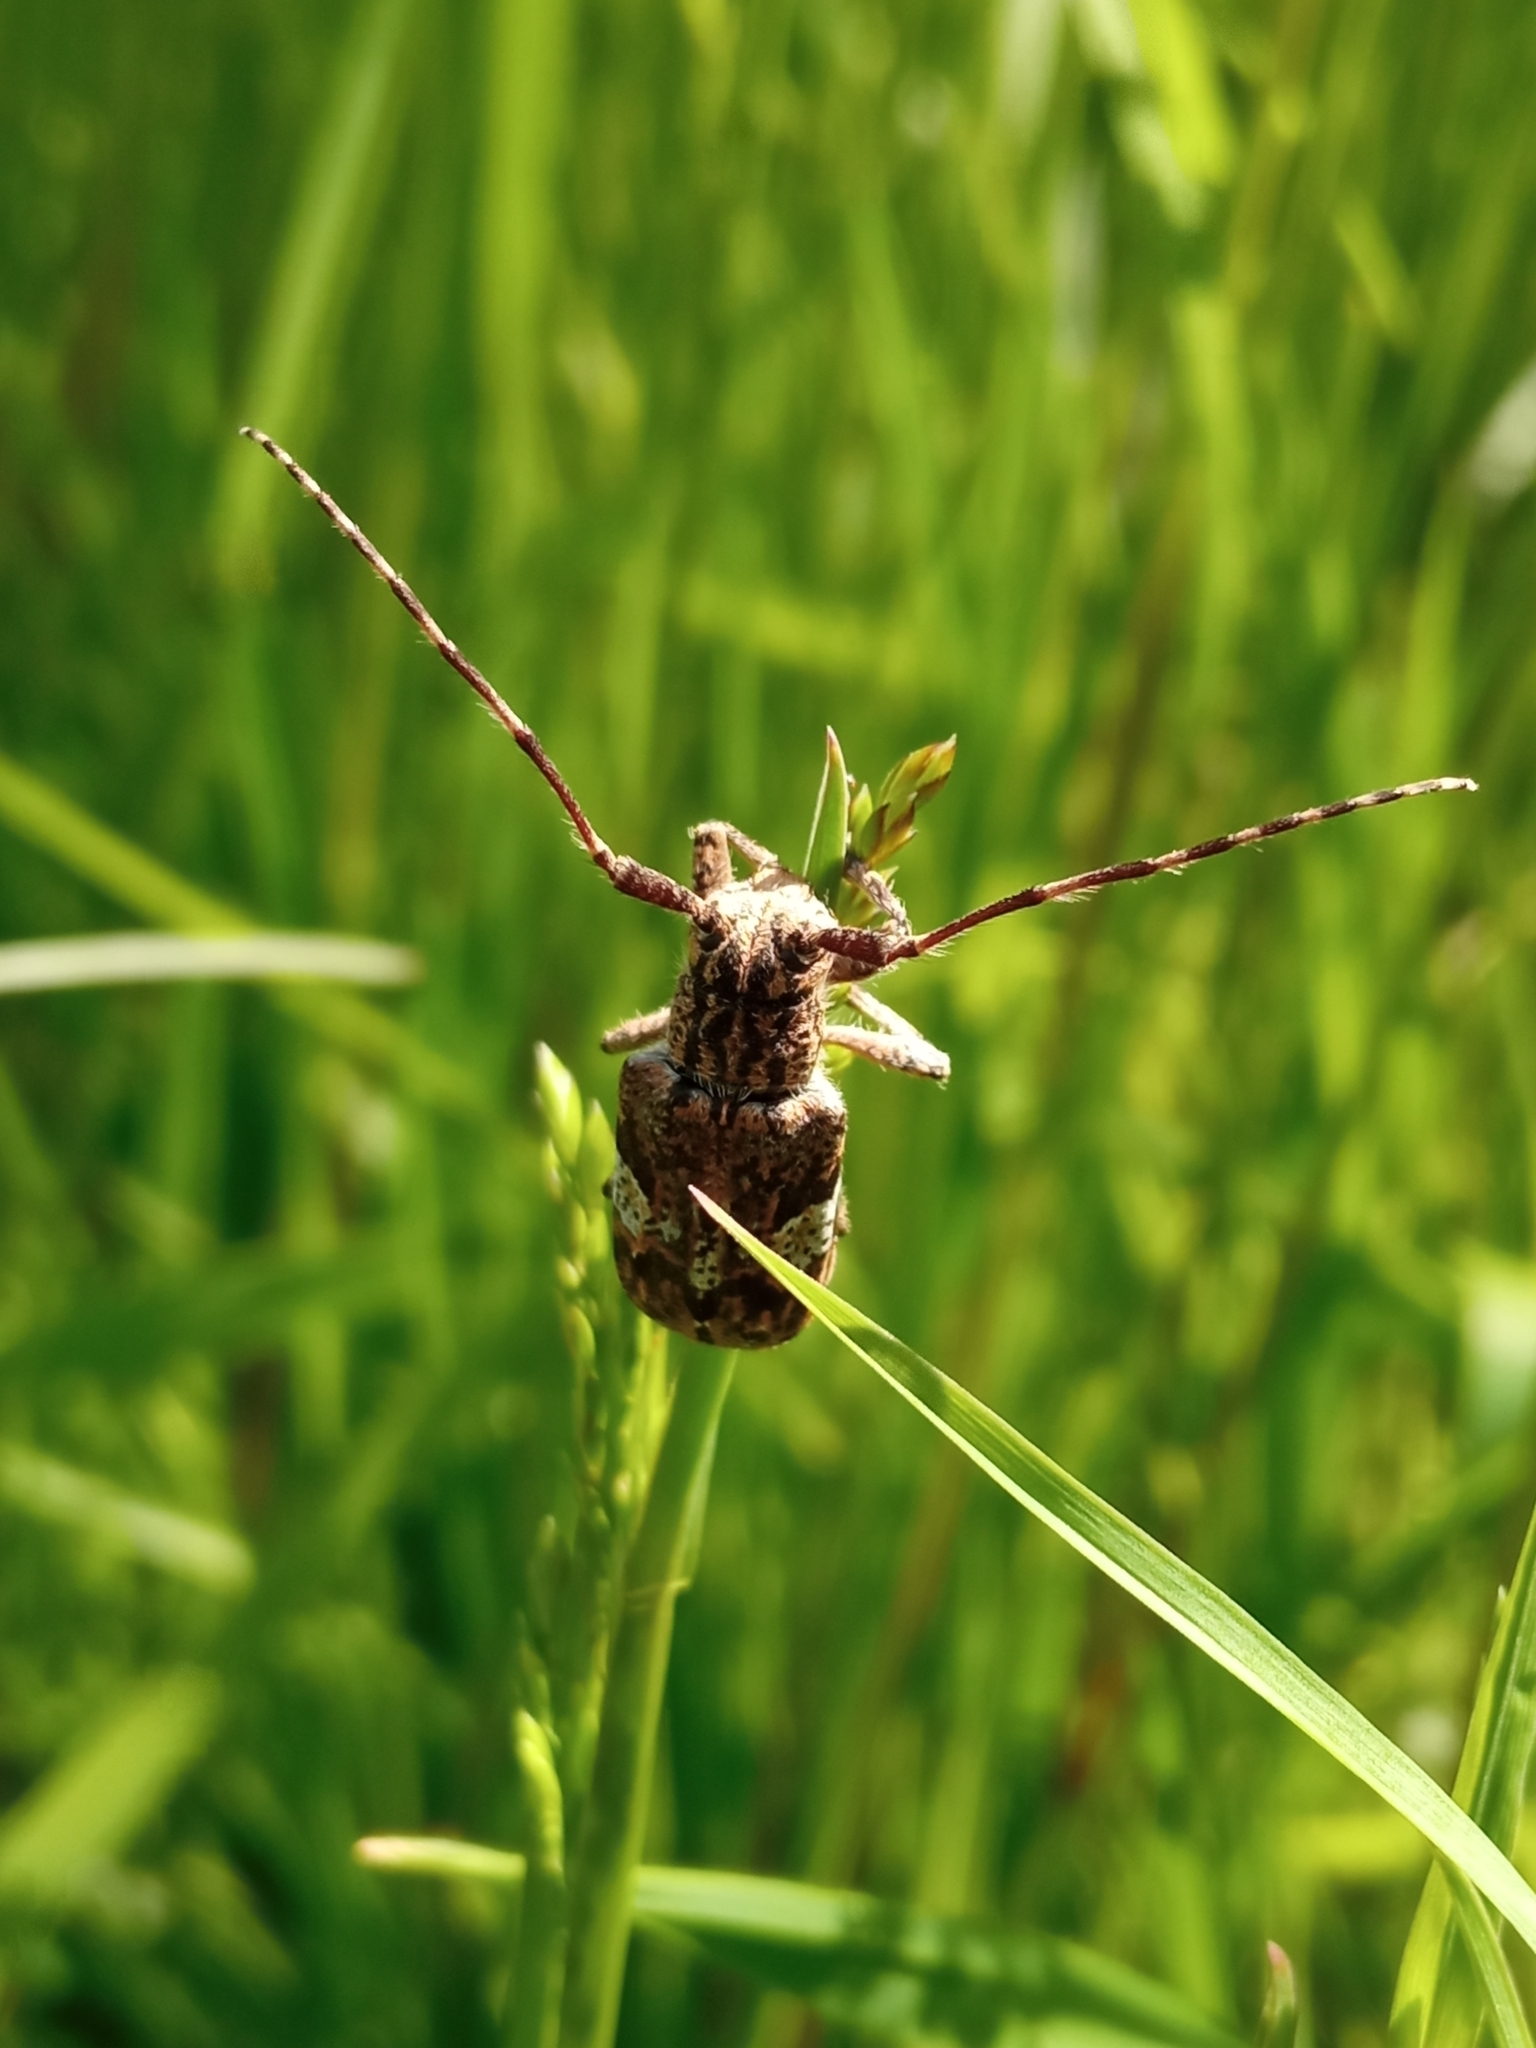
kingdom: Animalia
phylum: Arthropoda
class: Insecta
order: Coleoptera
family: Cerambycidae
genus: Mesosa
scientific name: Mesosa nebulosa
